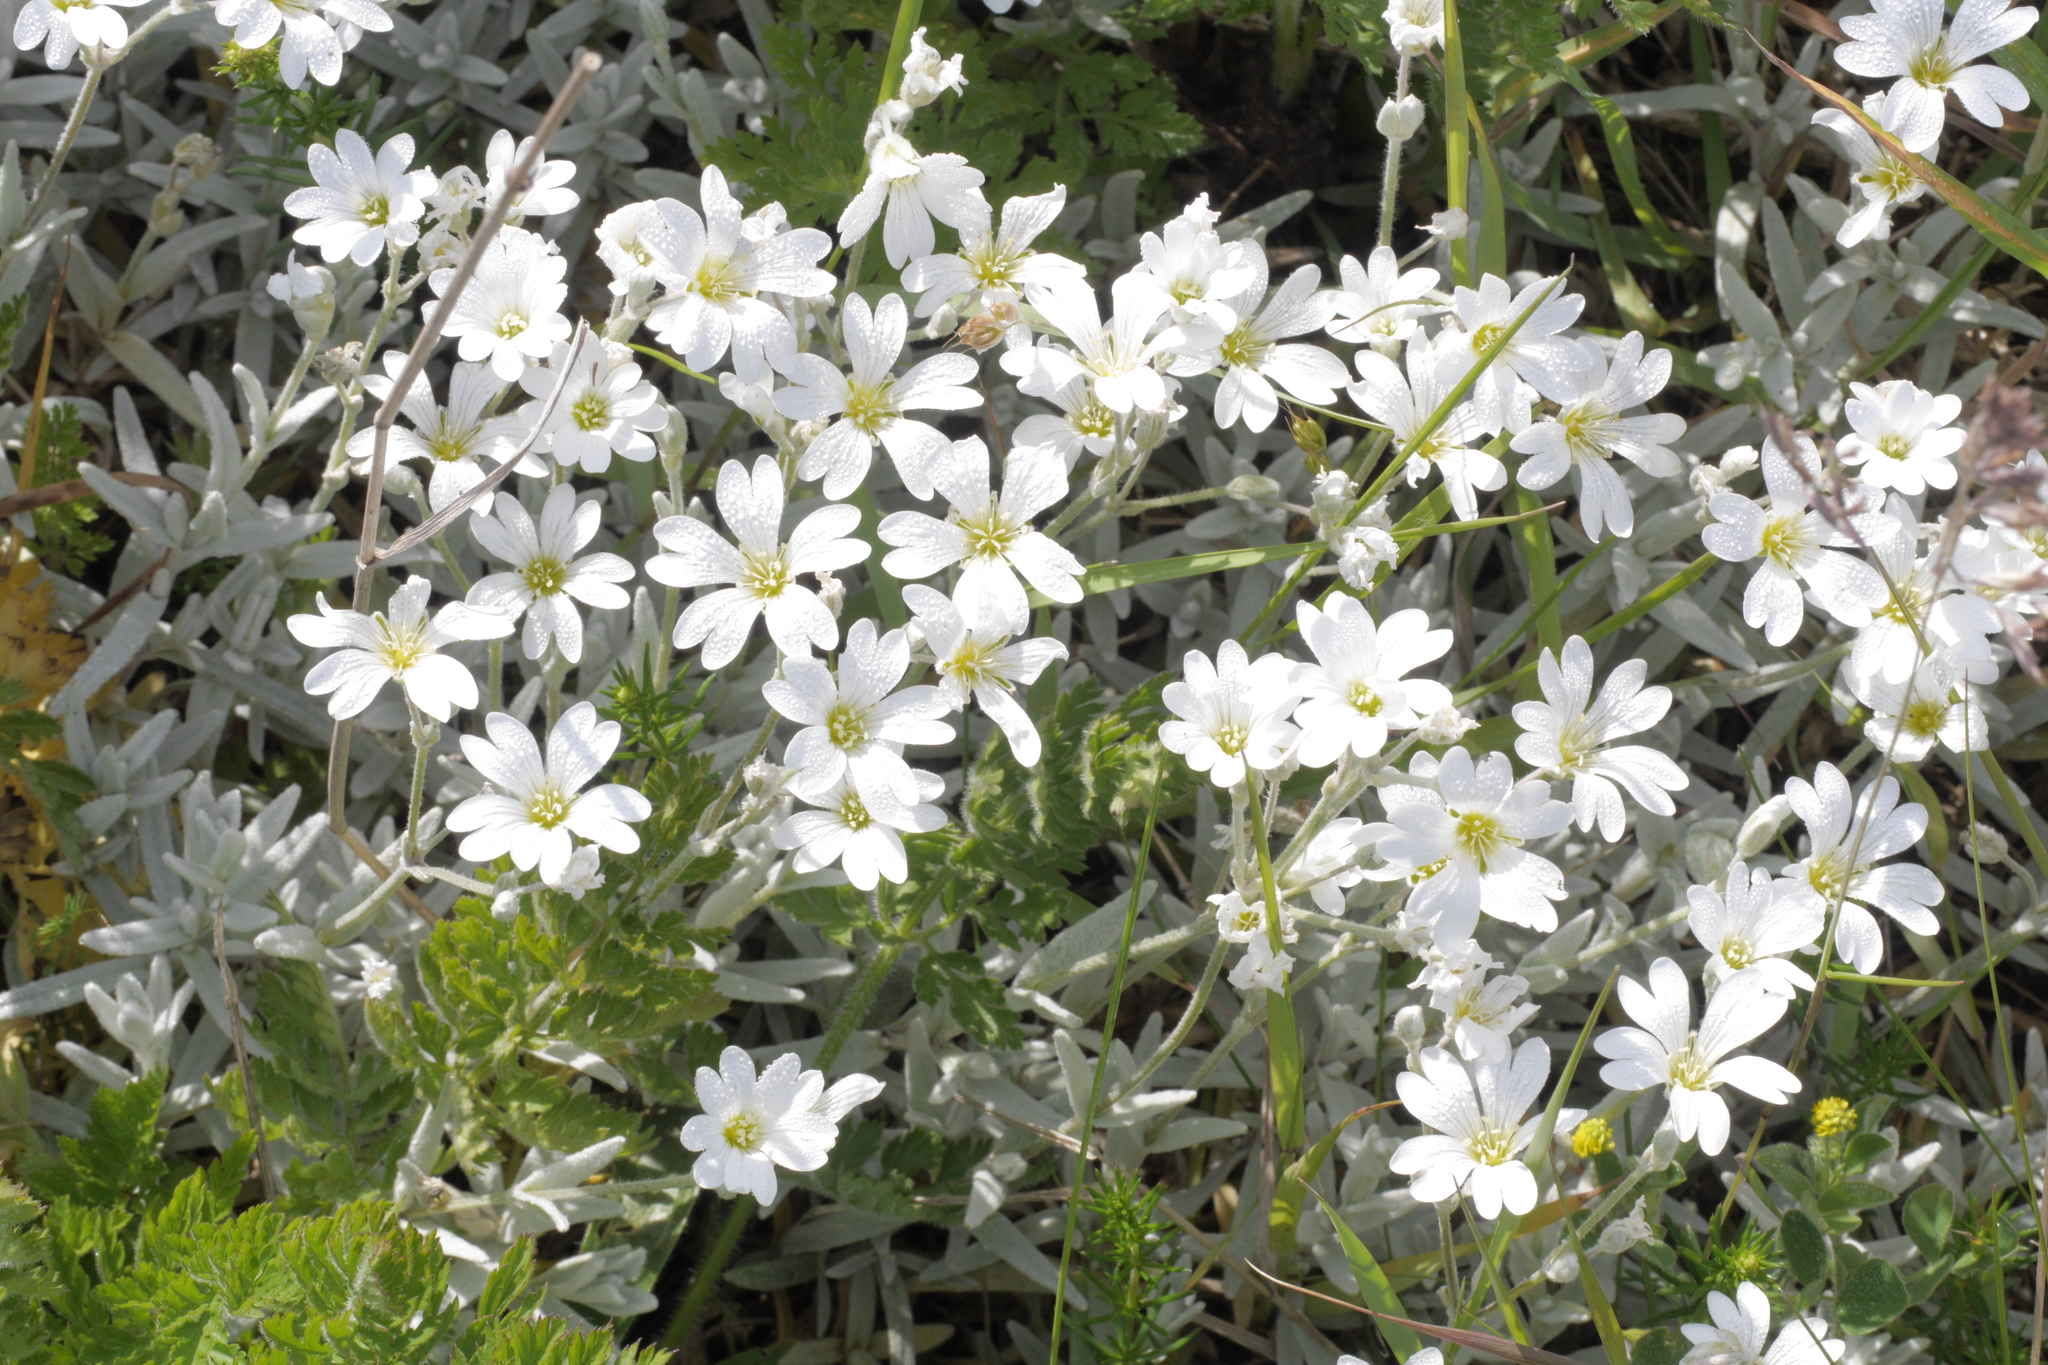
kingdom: Plantae
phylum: Tracheophyta
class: Magnoliopsida
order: Caryophyllales
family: Caryophyllaceae
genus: Cerastium
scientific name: Cerastium tomentosum
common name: Snow-in-summer
